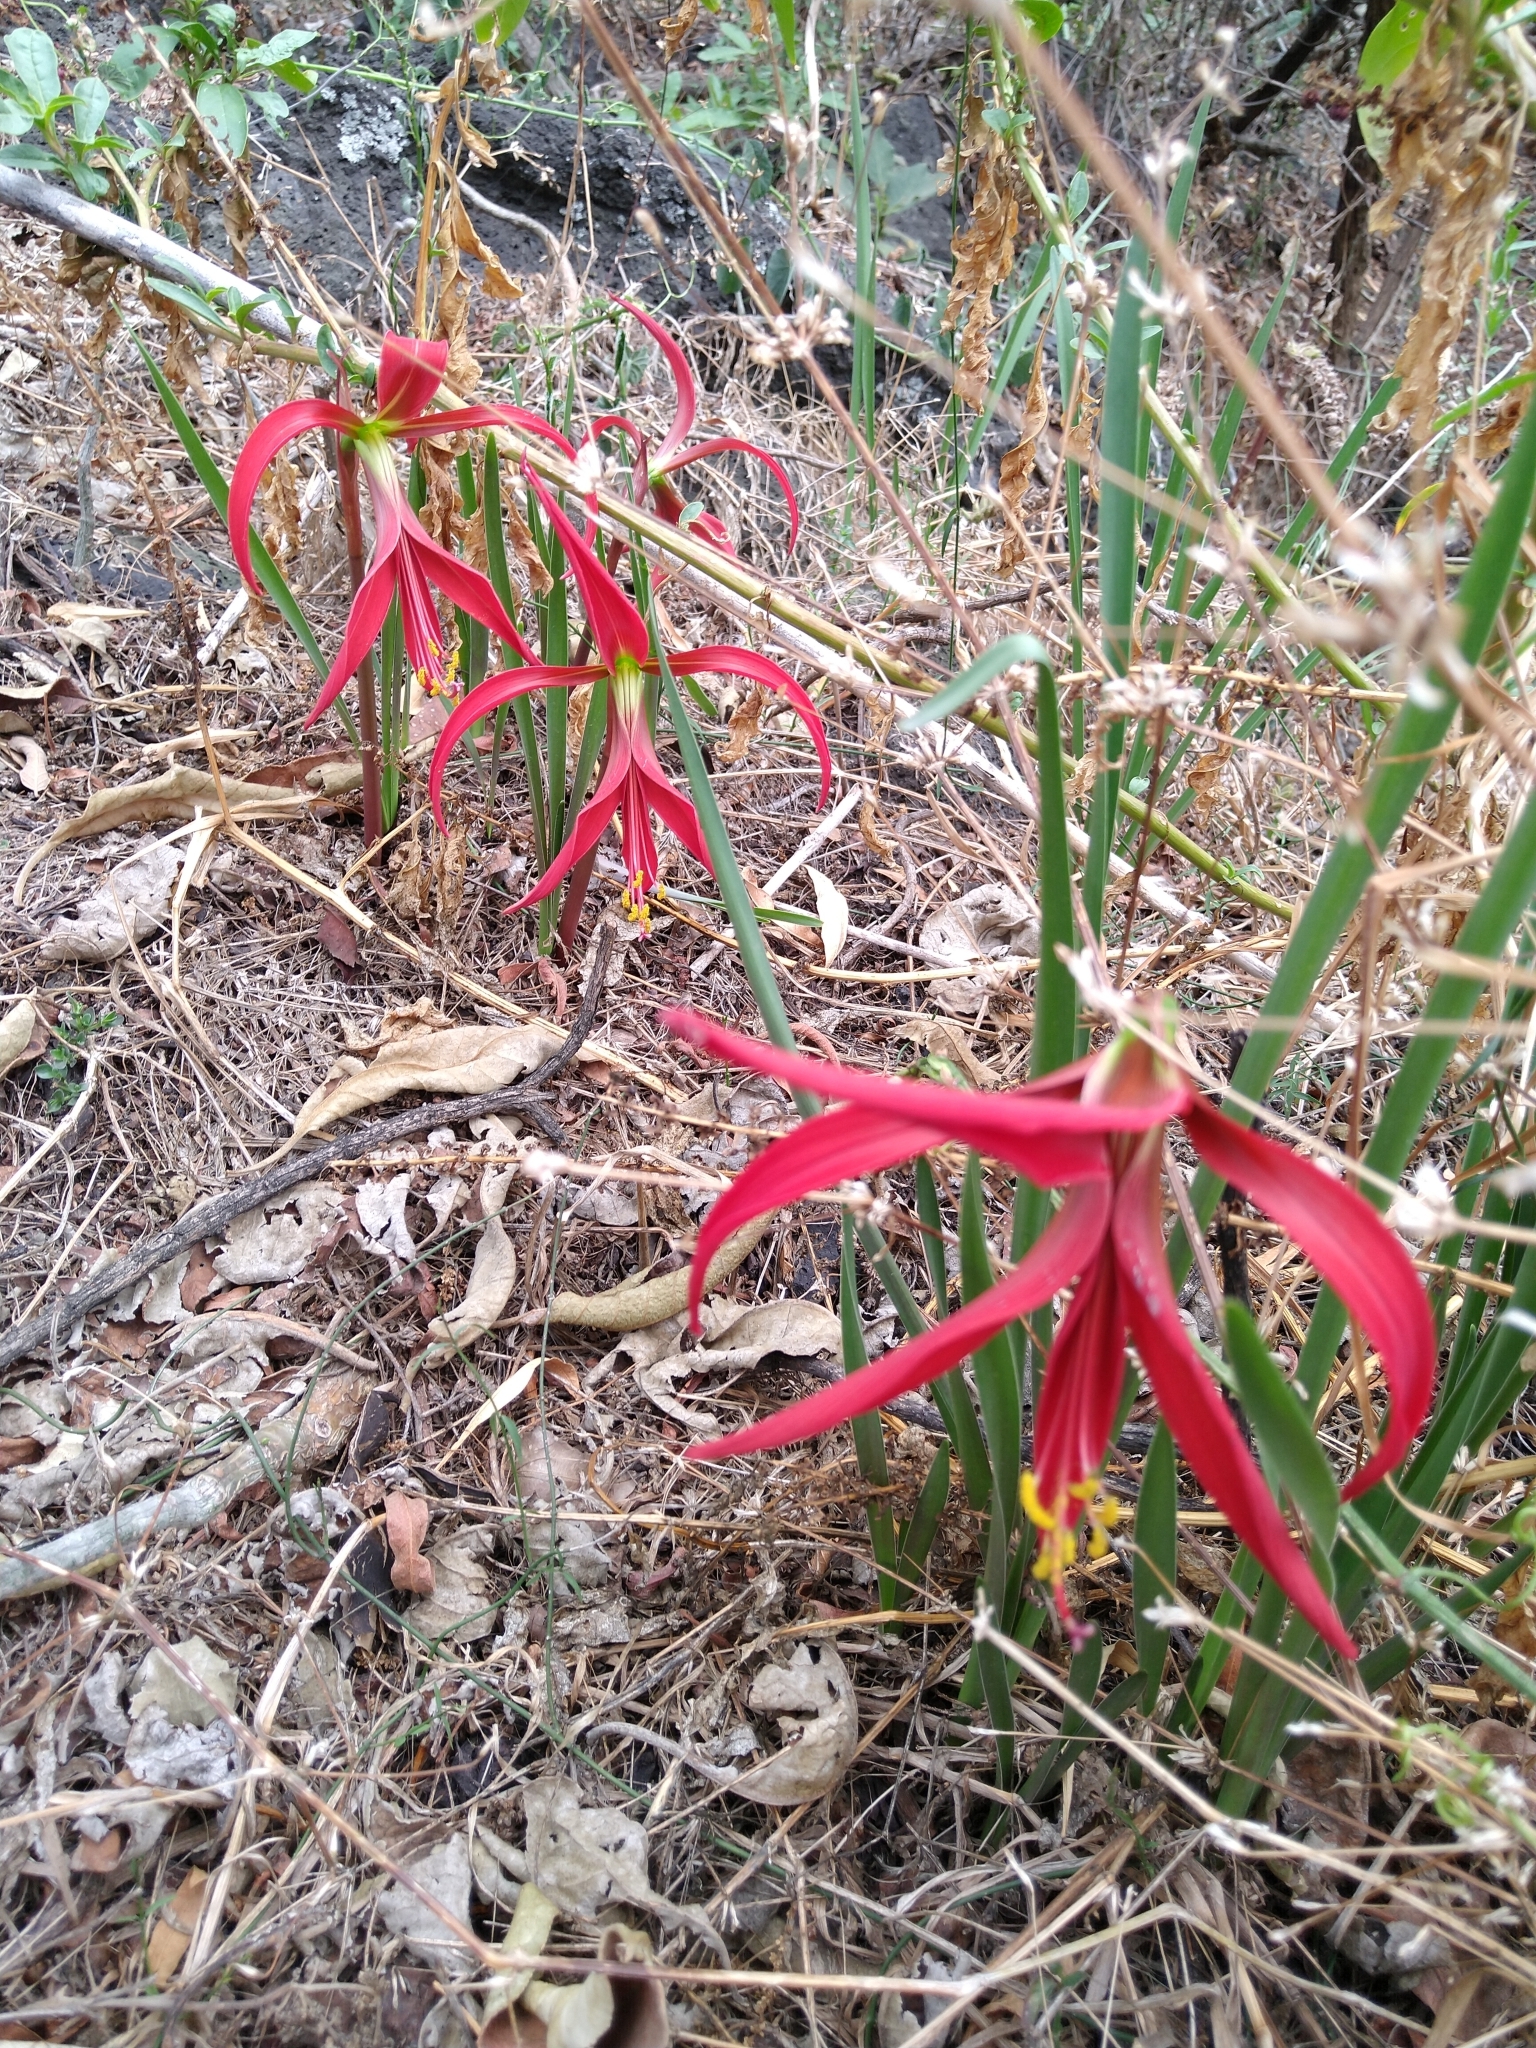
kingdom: Plantae
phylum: Tracheophyta
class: Liliopsida
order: Asparagales
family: Amaryllidaceae
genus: Sprekelia
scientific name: Sprekelia formosissima
